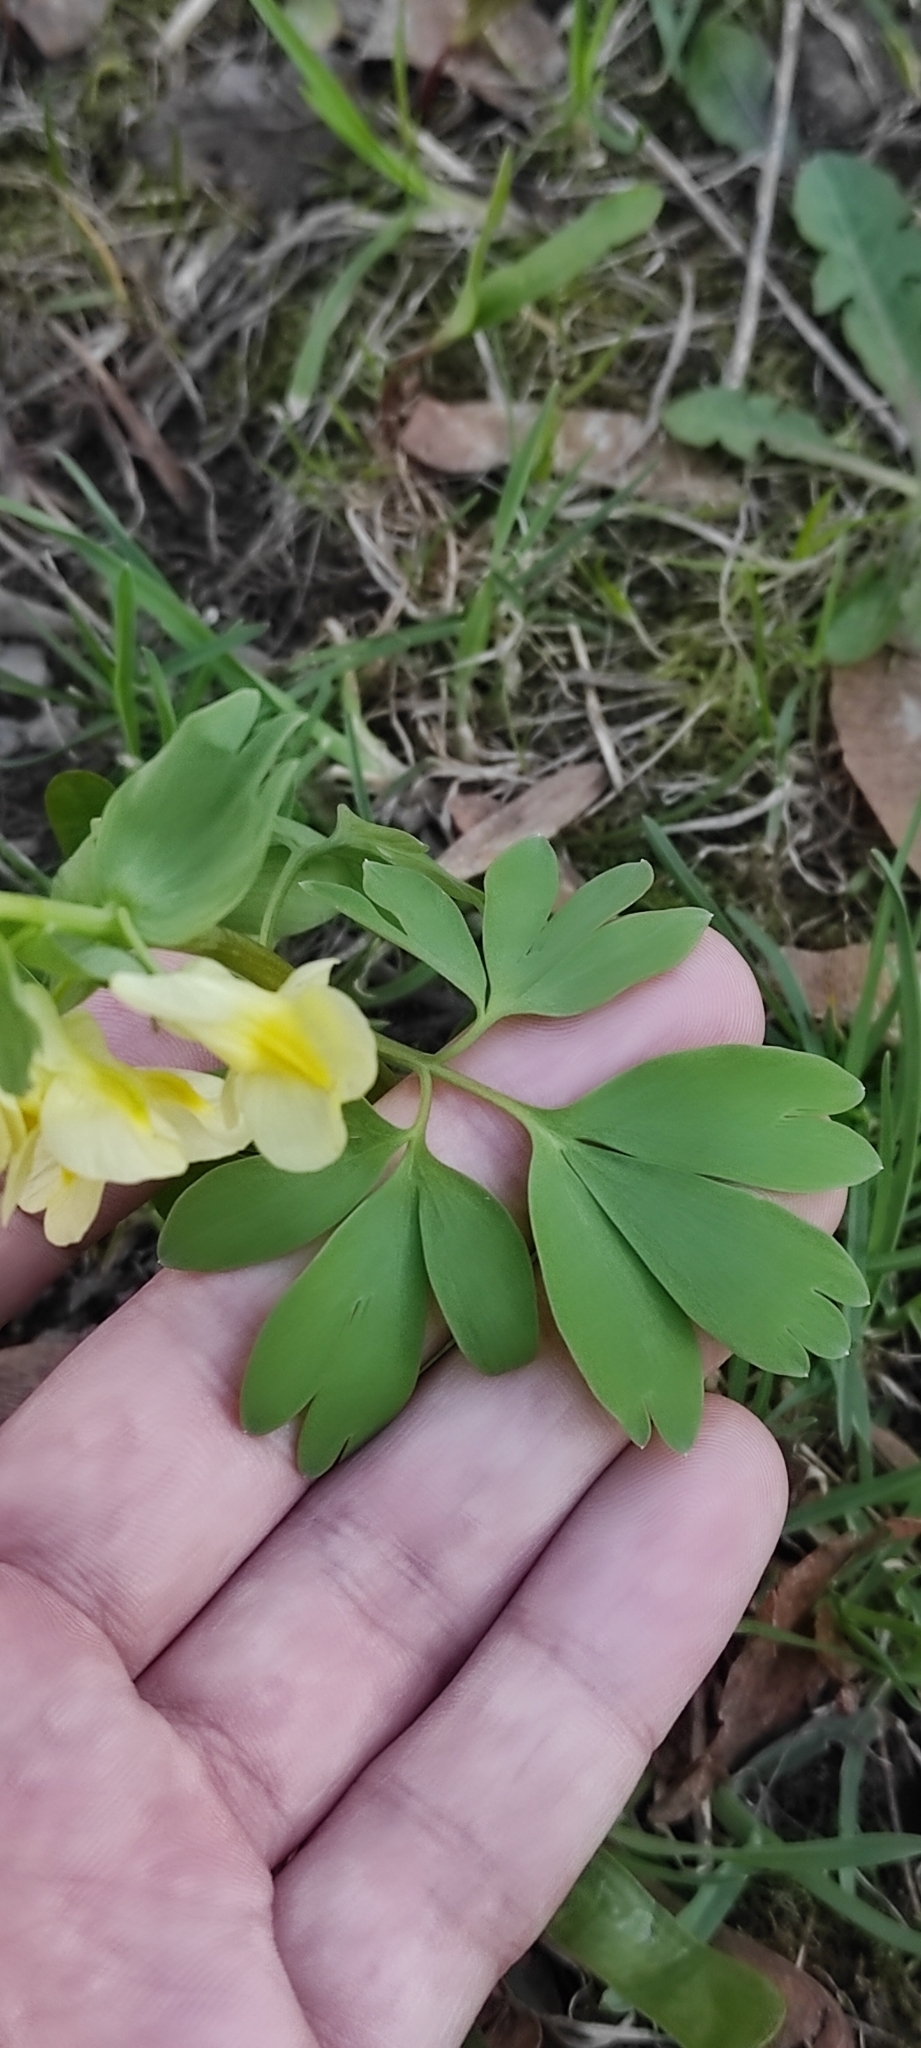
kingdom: Plantae
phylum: Tracheophyta
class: Magnoliopsida
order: Ranunculales
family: Papaveraceae
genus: Corydalis
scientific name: Corydalis bracteata
